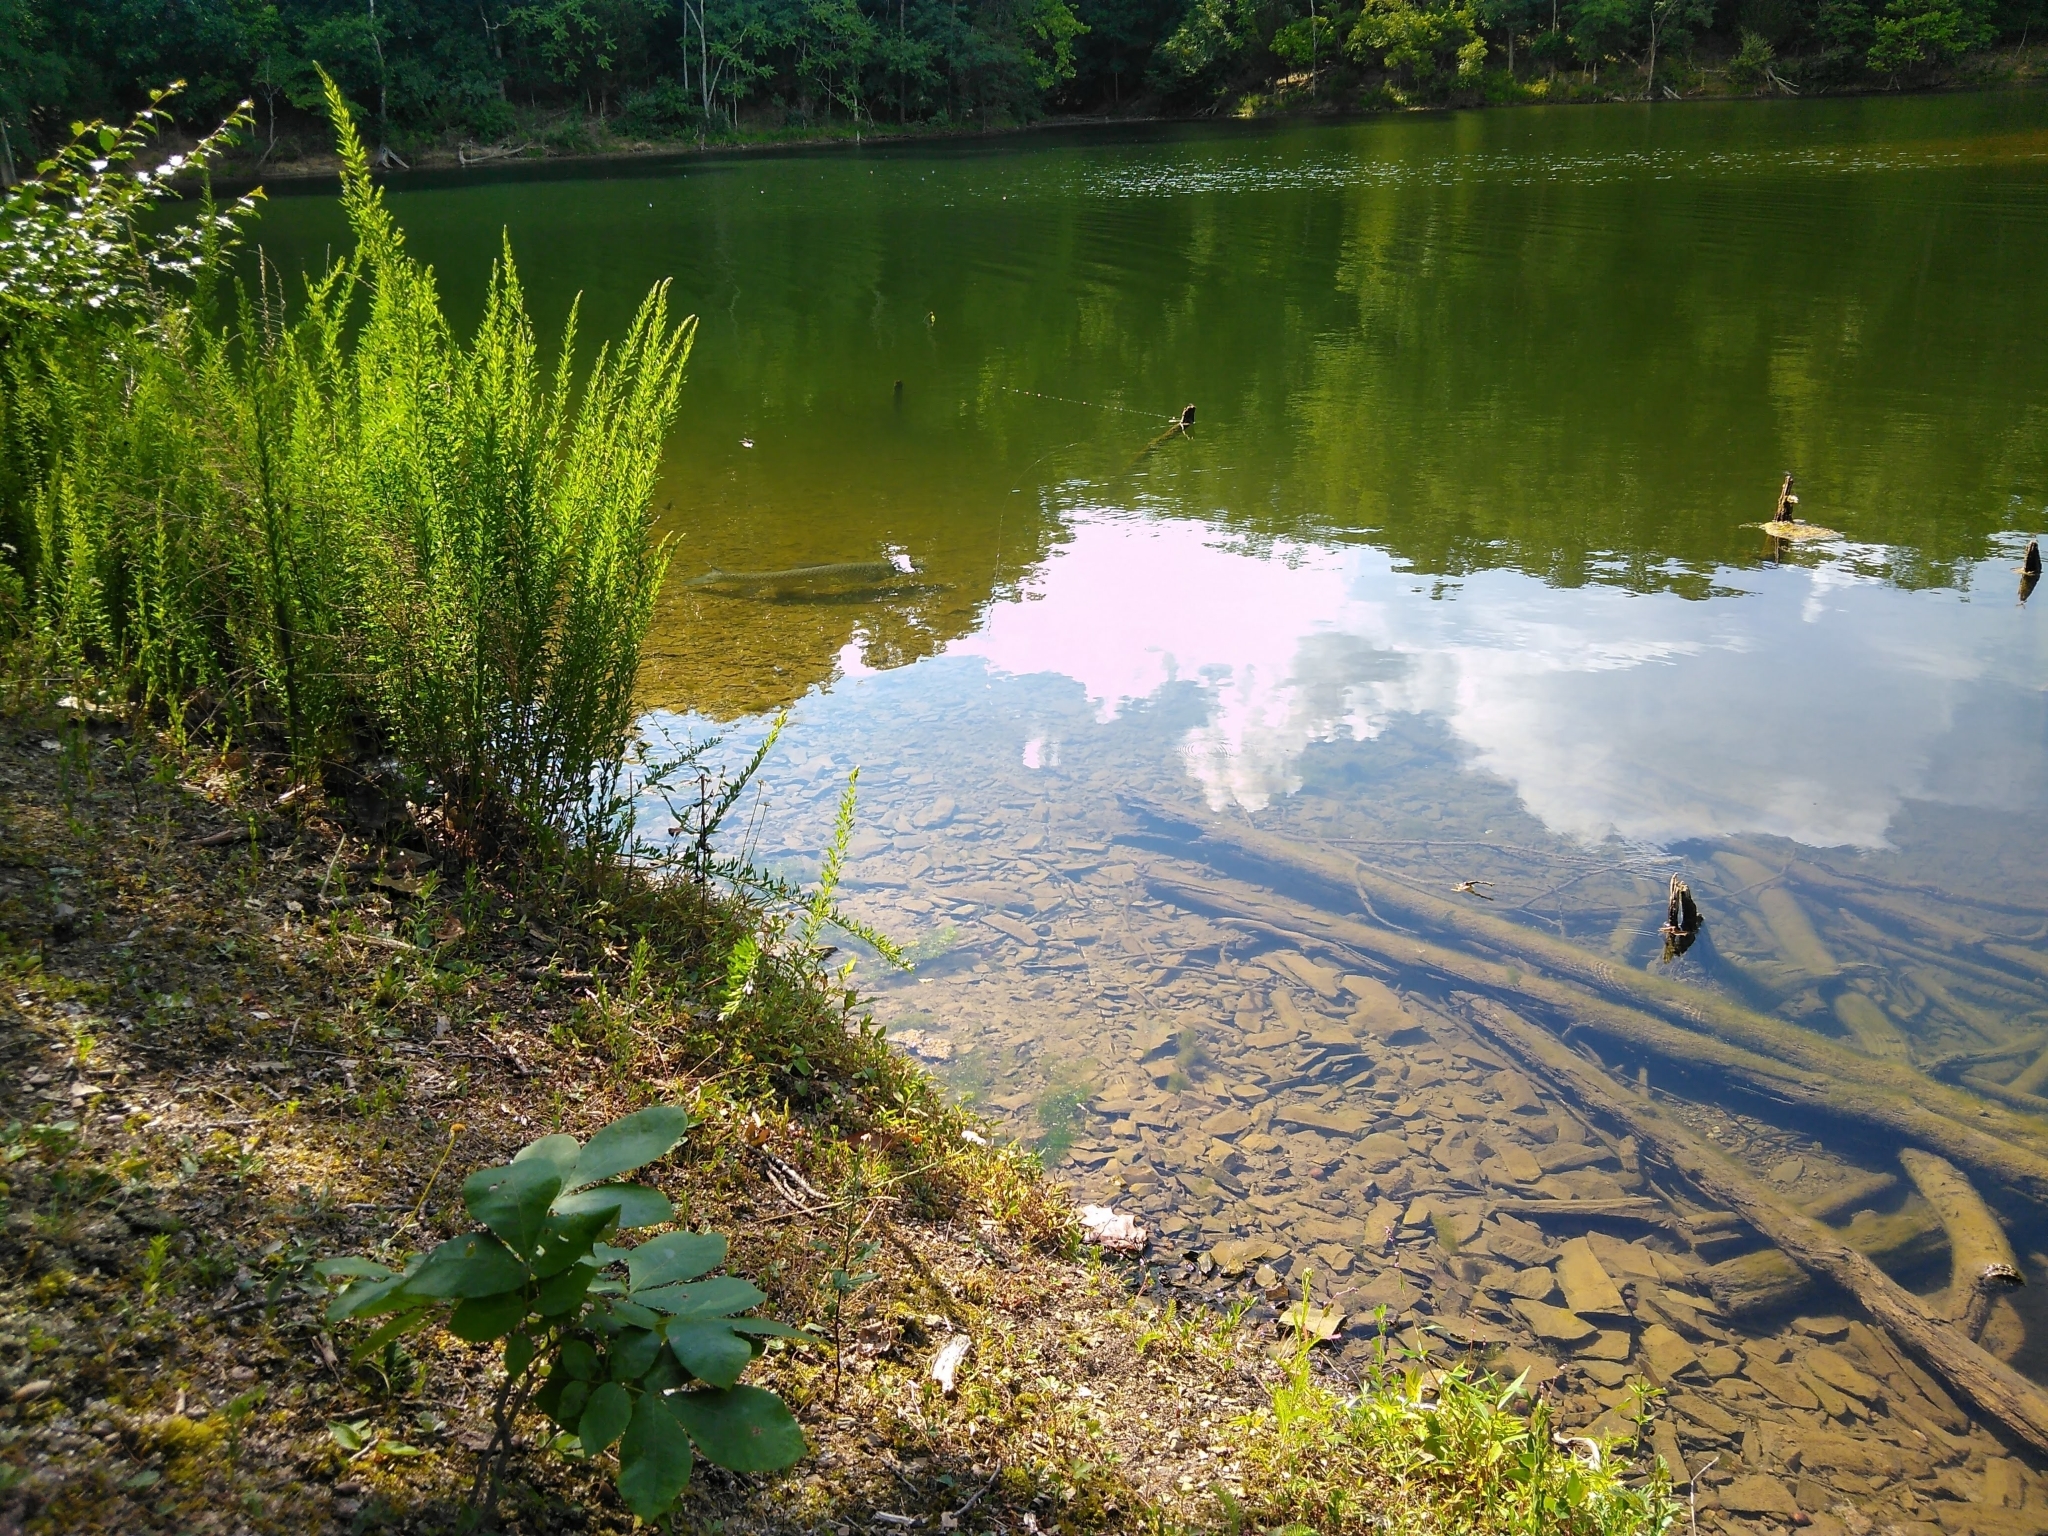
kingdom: Animalia
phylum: Chordata
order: Cypriniformes
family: Cyprinidae
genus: Ctenopharyngodon
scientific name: Ctenopharyngodon idella
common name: Grass carp
